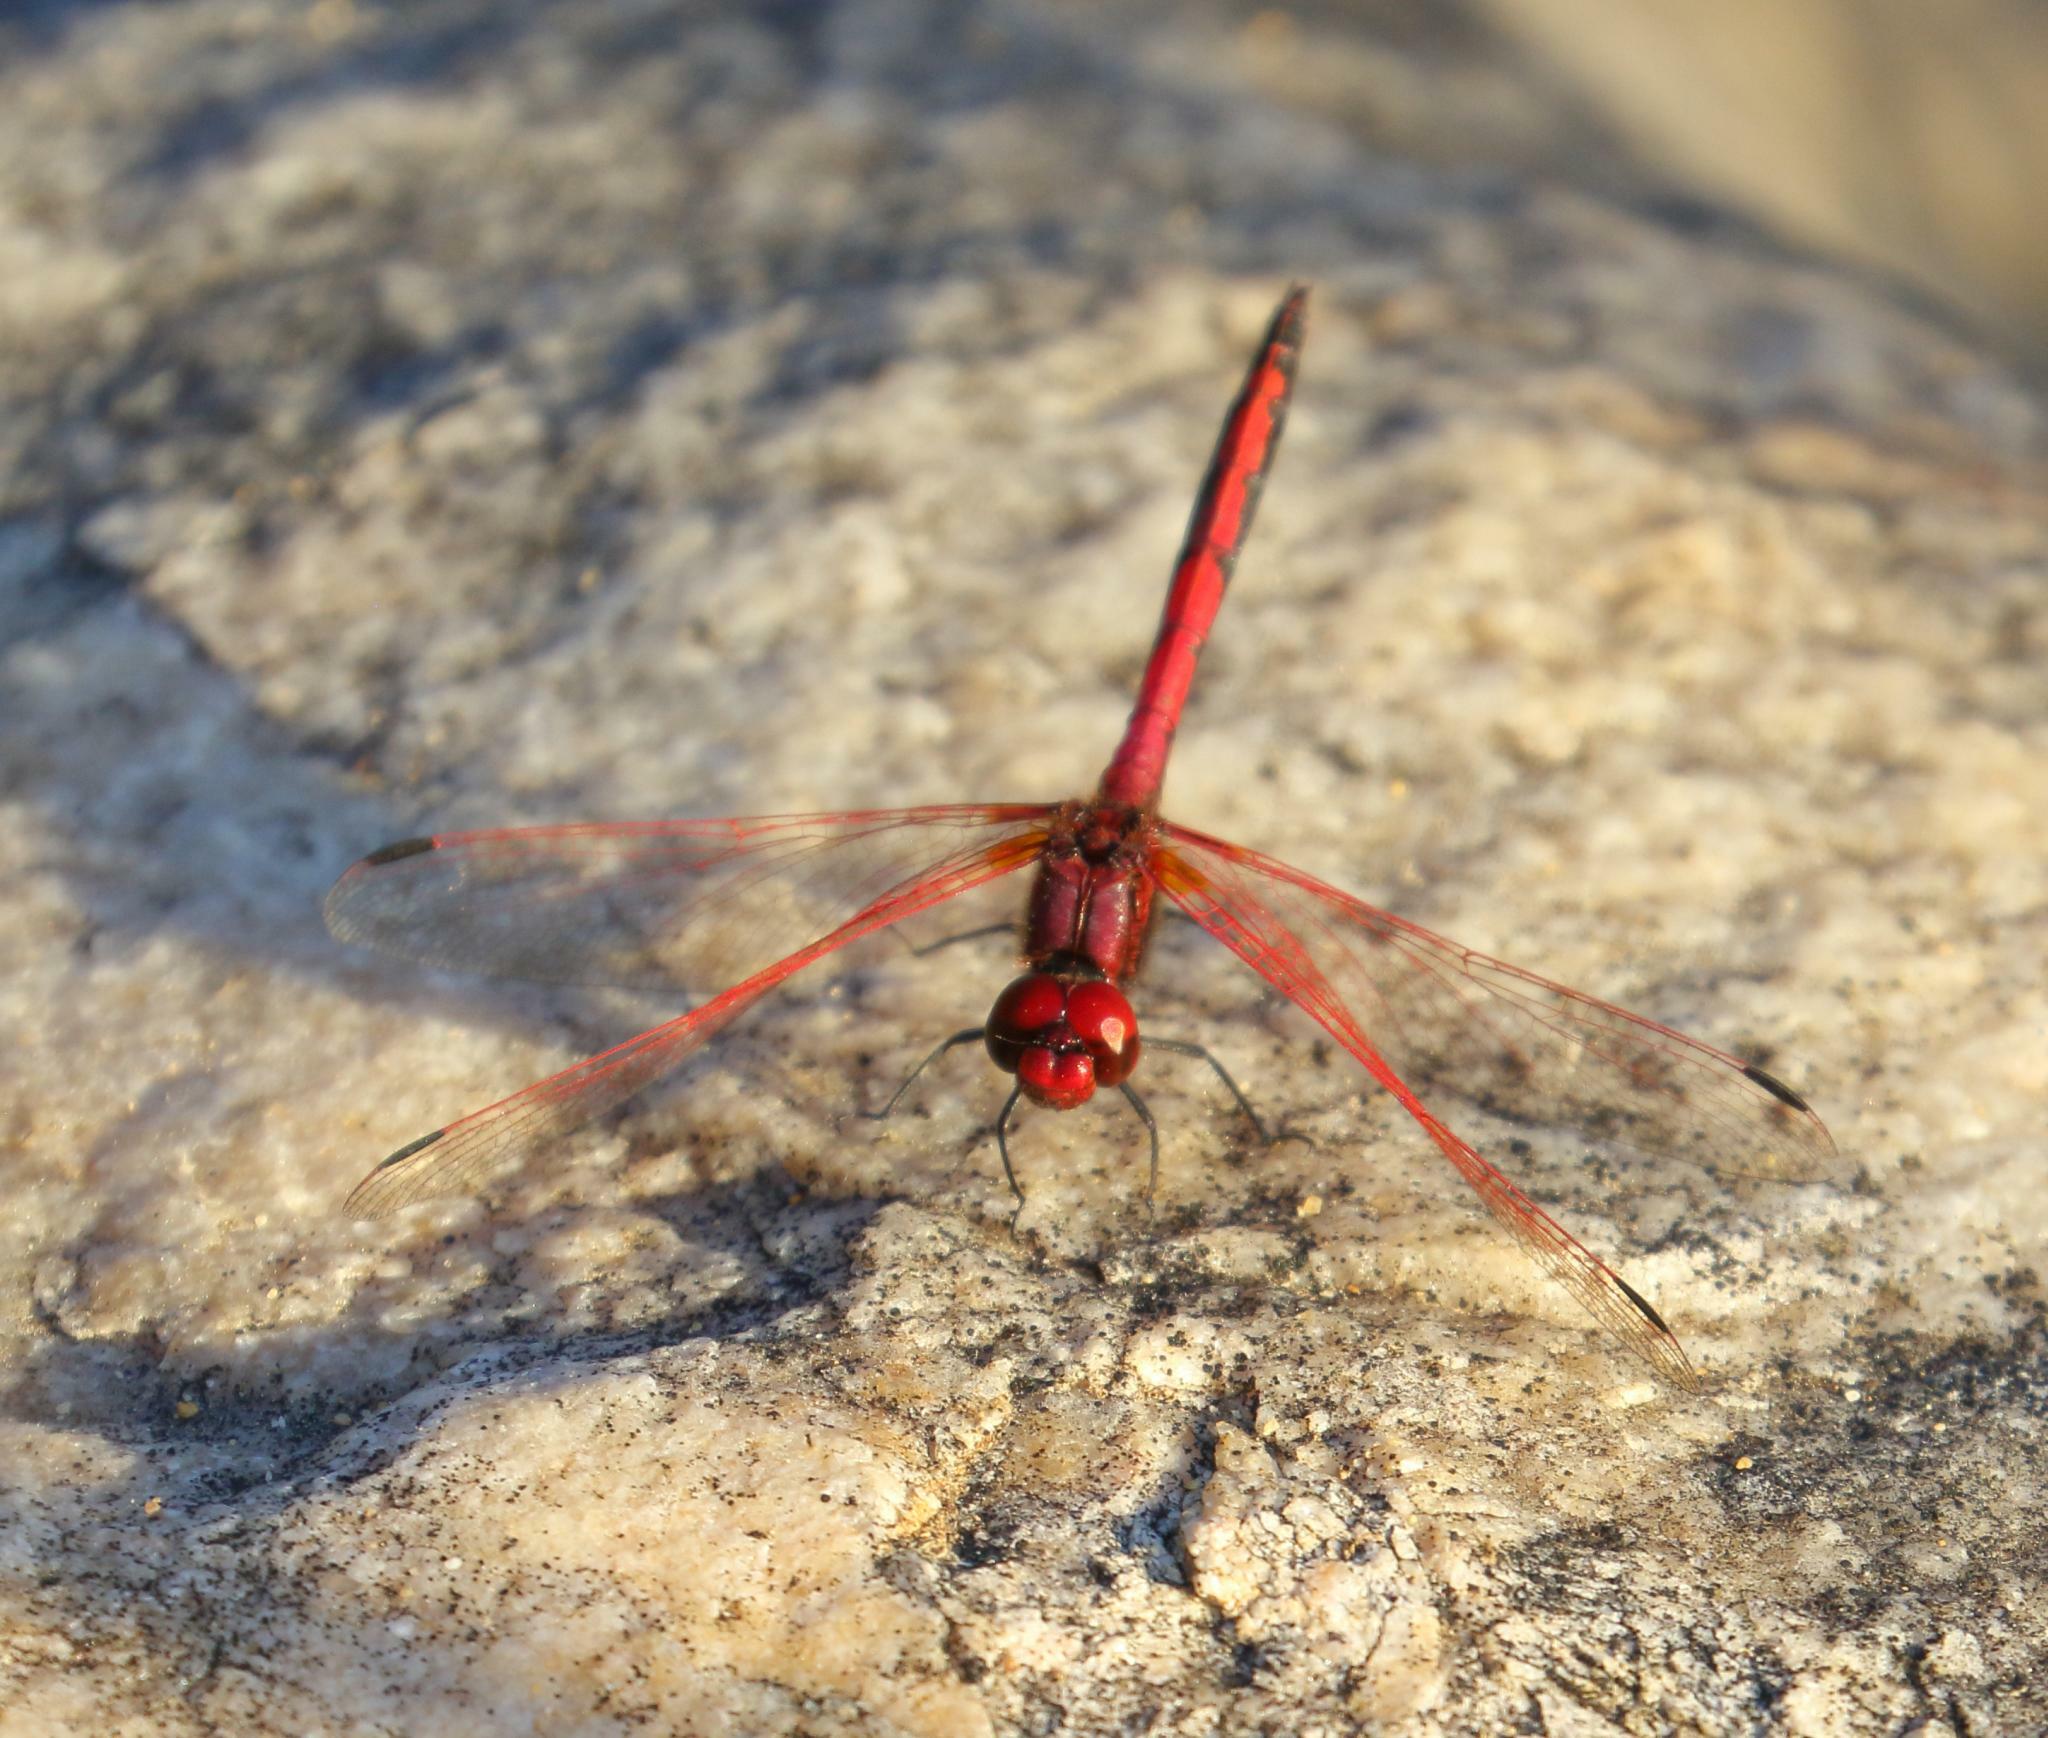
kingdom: Animalia
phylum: Arthropoda
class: Insecta
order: Odonata
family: Libellulidae
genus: Trithemis
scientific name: Trithemis arteriosa
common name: Red-veined dropwing
